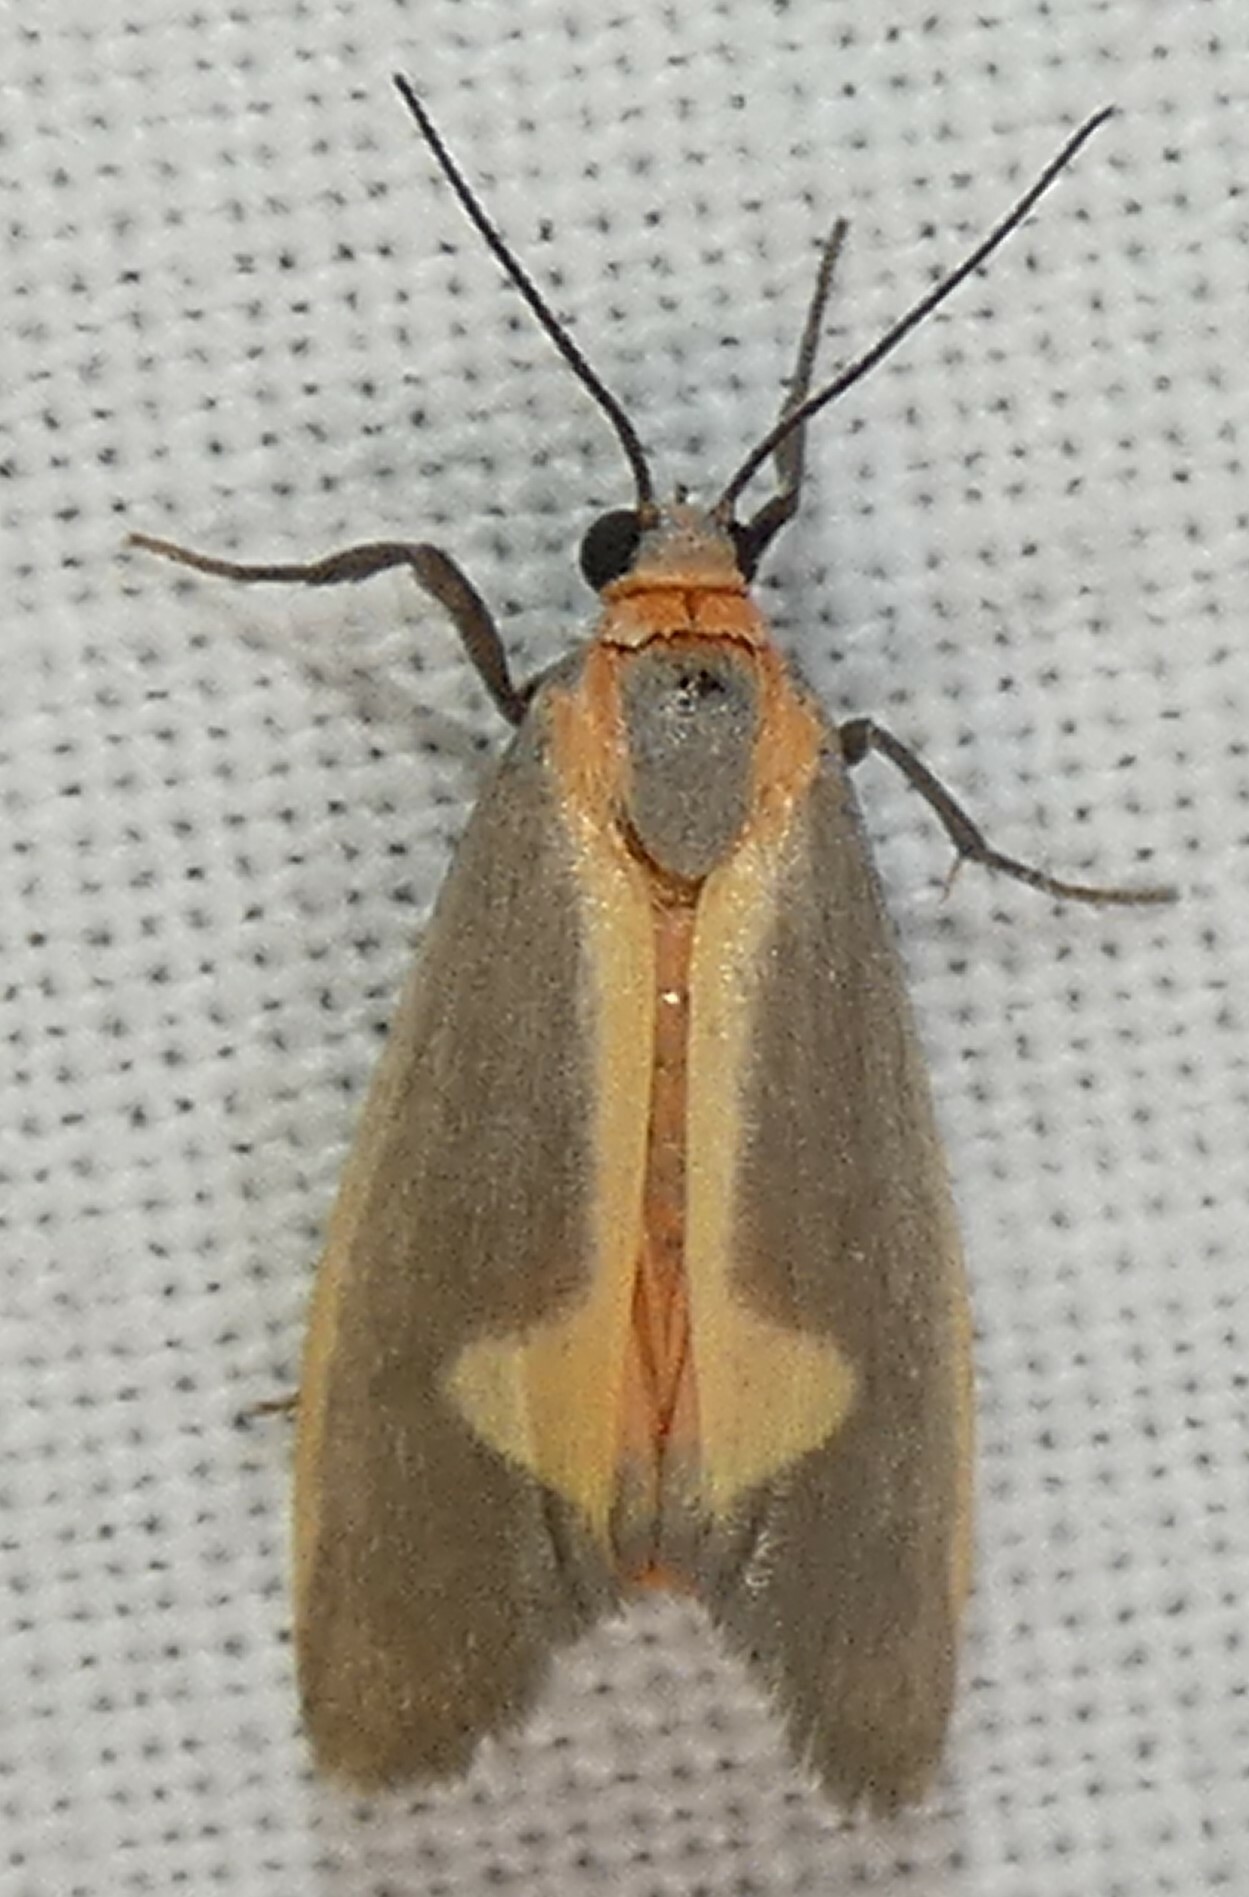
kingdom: Animalia
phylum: Arthropoda
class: Insecta
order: Lepidoptera
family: Erebidae
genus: Cisthene
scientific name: Cisthene plumbea
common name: Lead colored lichen moth
